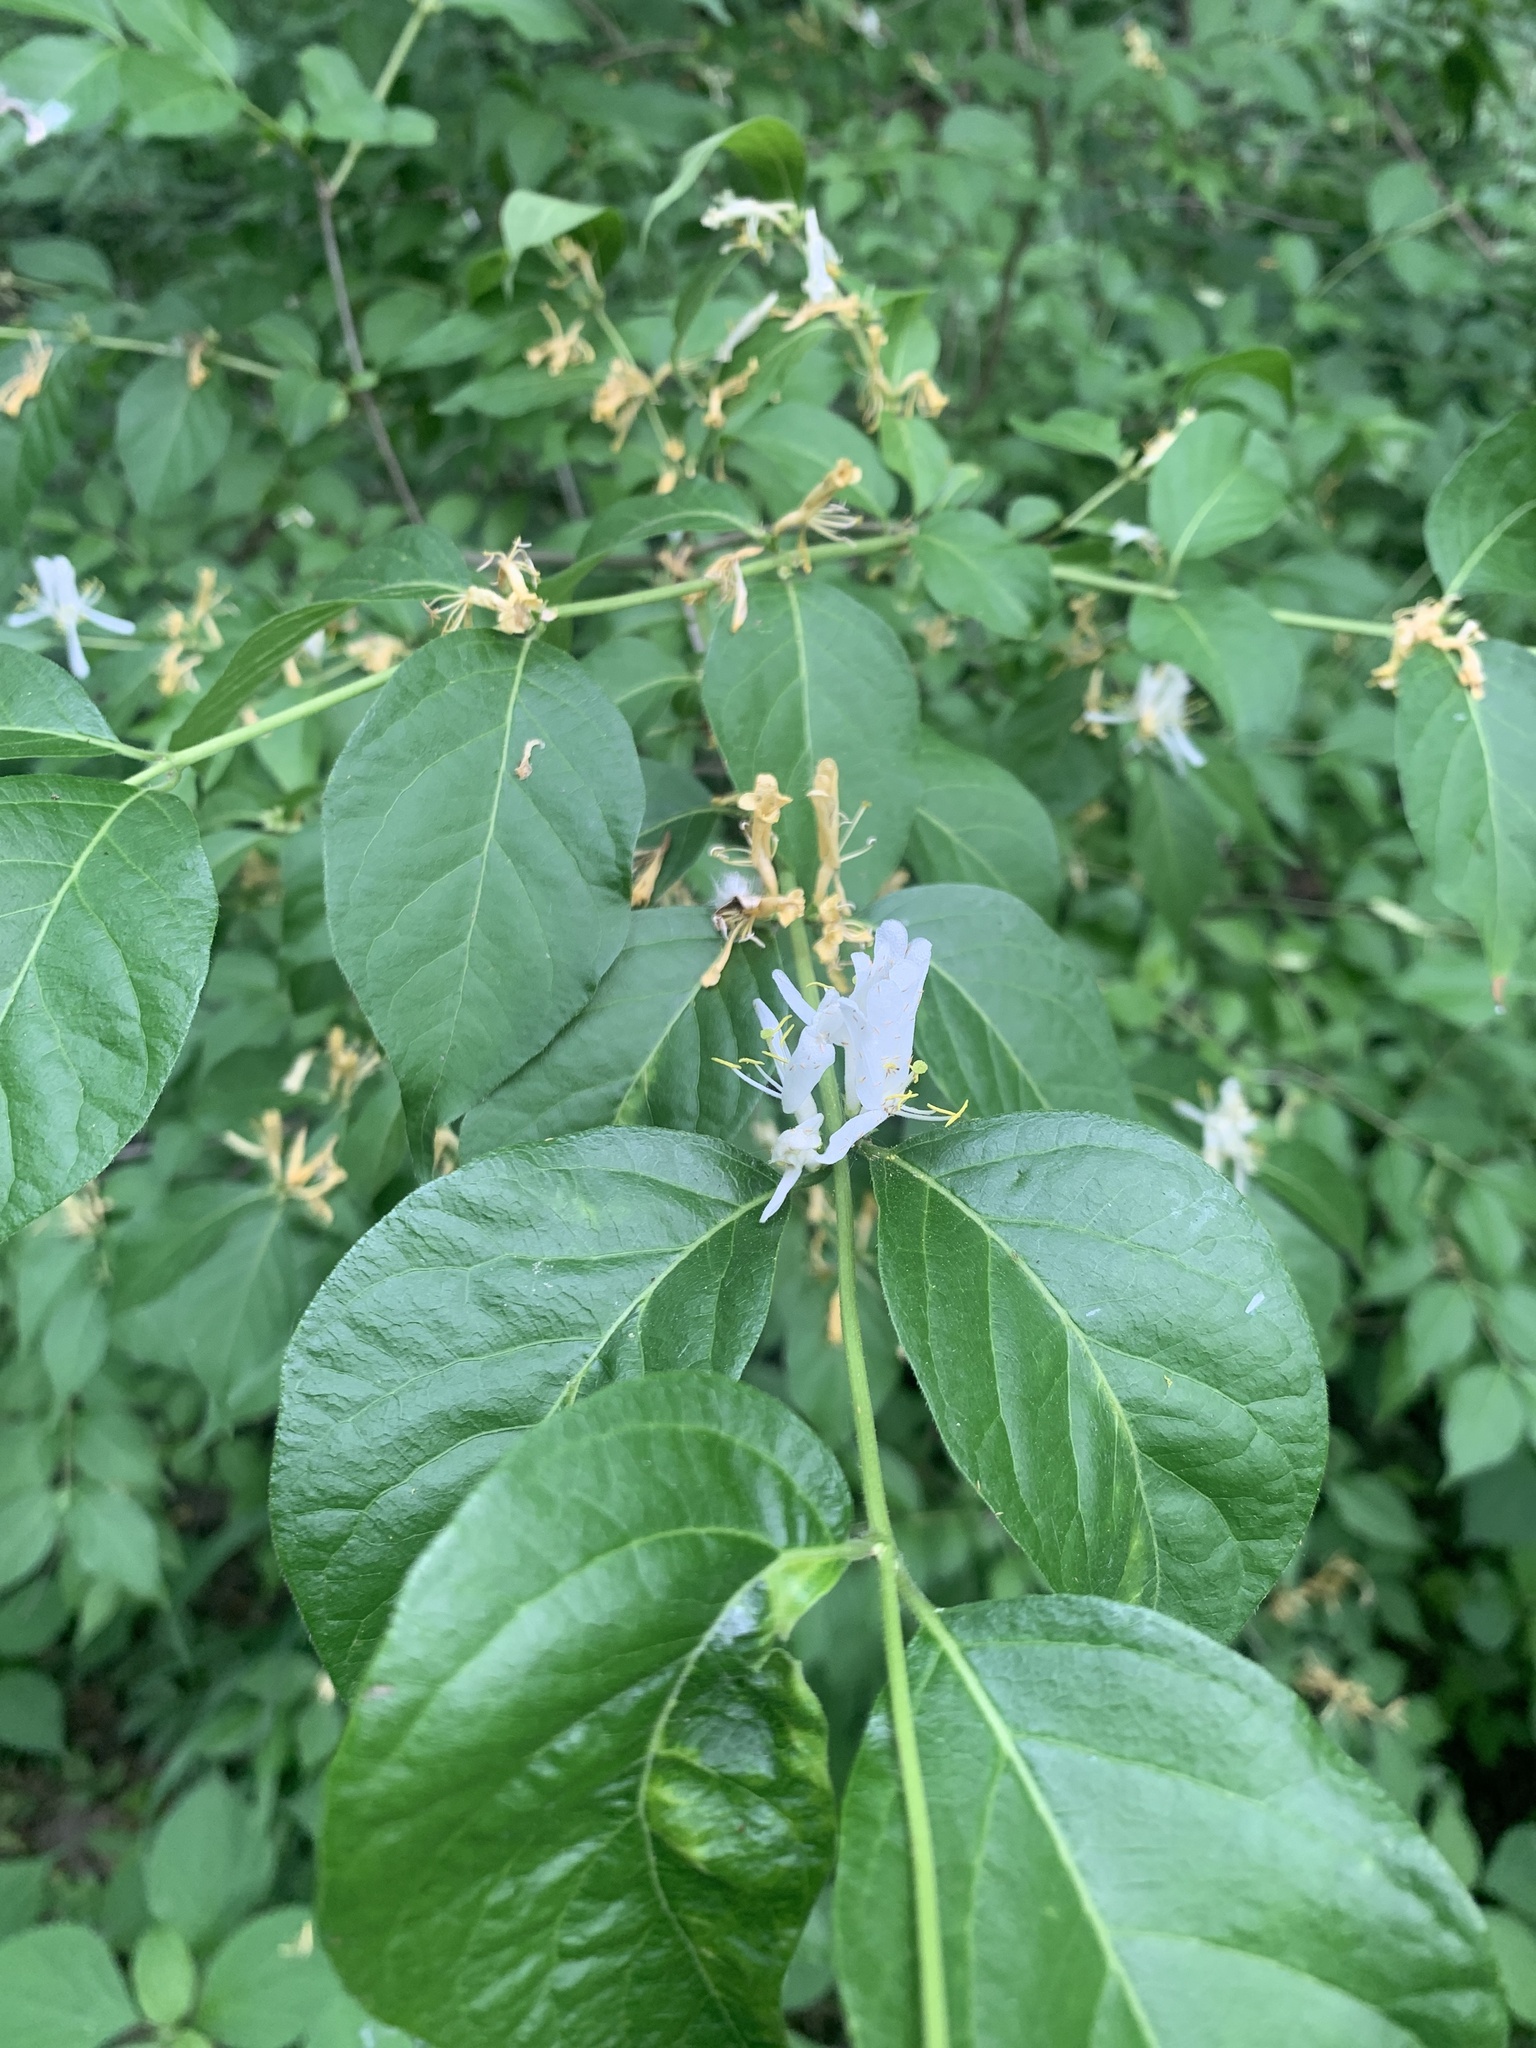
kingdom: Plantae
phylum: Tracheophyta
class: Magnoliopsida
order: Dipsacales
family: Caprifoliaceae
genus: Lonicera
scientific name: Lonicera maackii
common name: Amur honeysuckle
